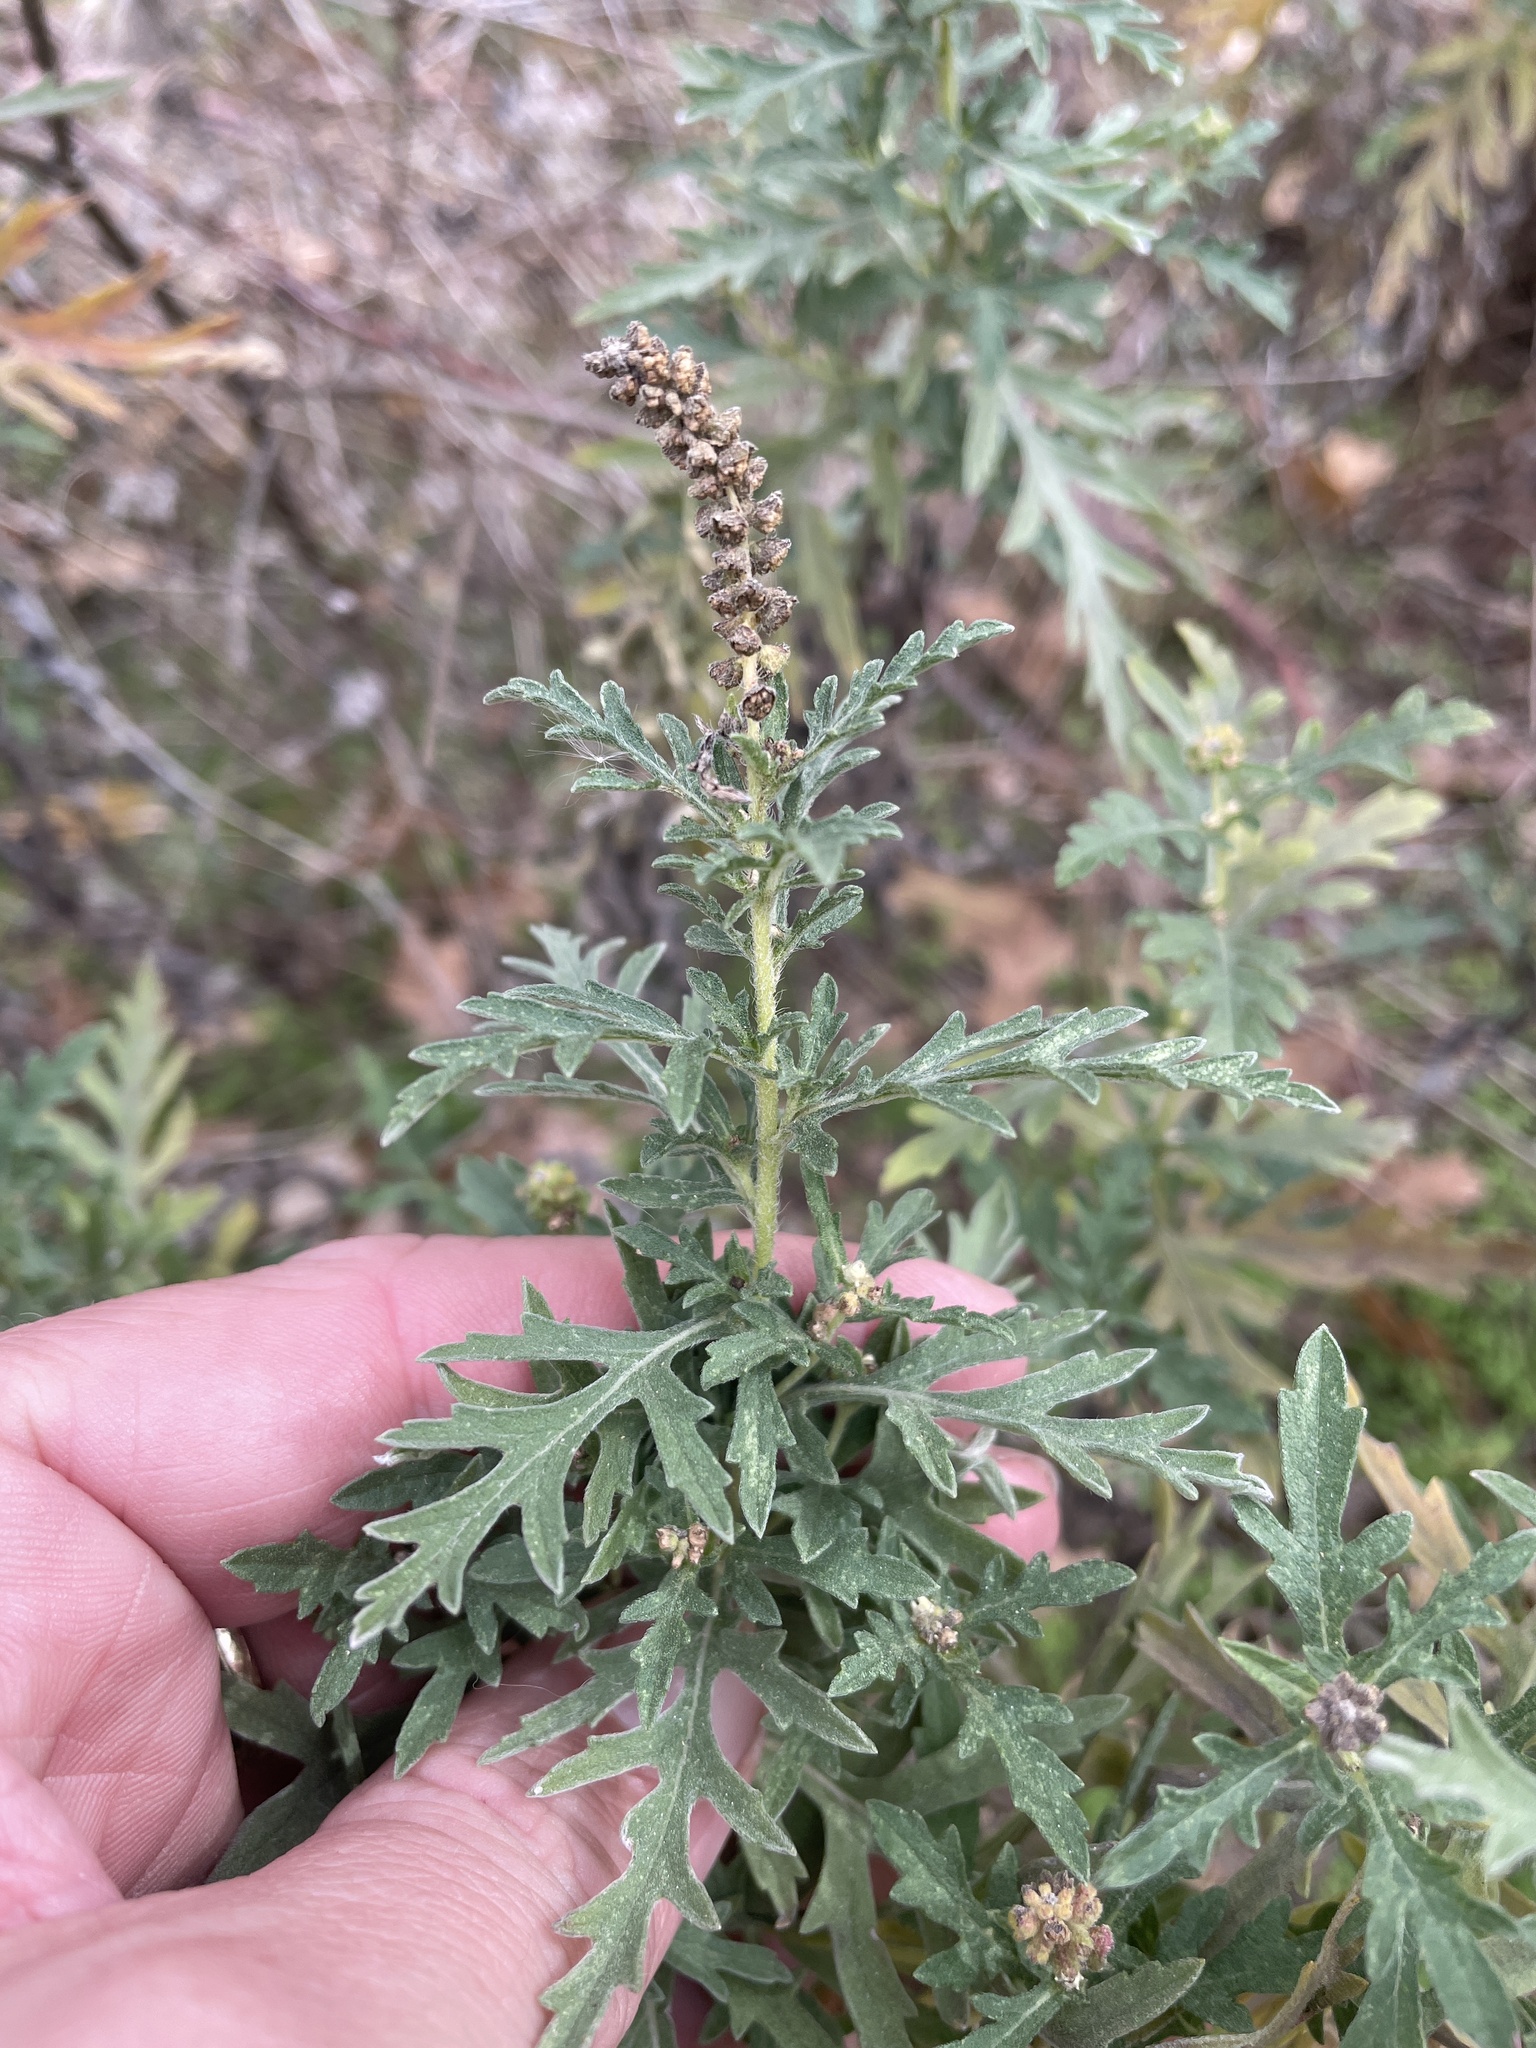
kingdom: Plantae
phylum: Tracheophyta
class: Magnoliopsida
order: Asterales
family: Asteraceae
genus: Ambrosia
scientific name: Ambrosia psilostachya
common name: Perennial ragweed
